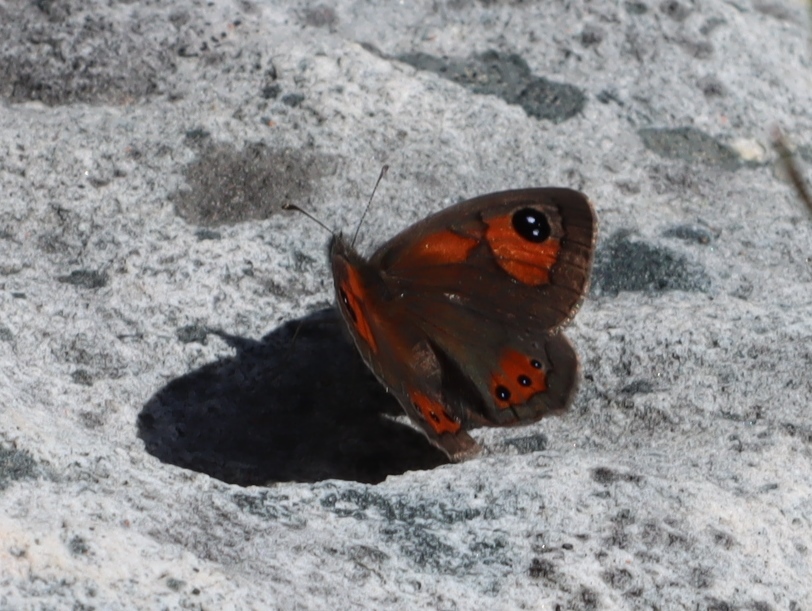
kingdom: Animalia
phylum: Arthropoda
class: Insecta
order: Lepidoptera
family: Nymphalidae
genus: Pseudonympha
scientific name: Pseudonympha trimenii
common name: Trimen’s brown
